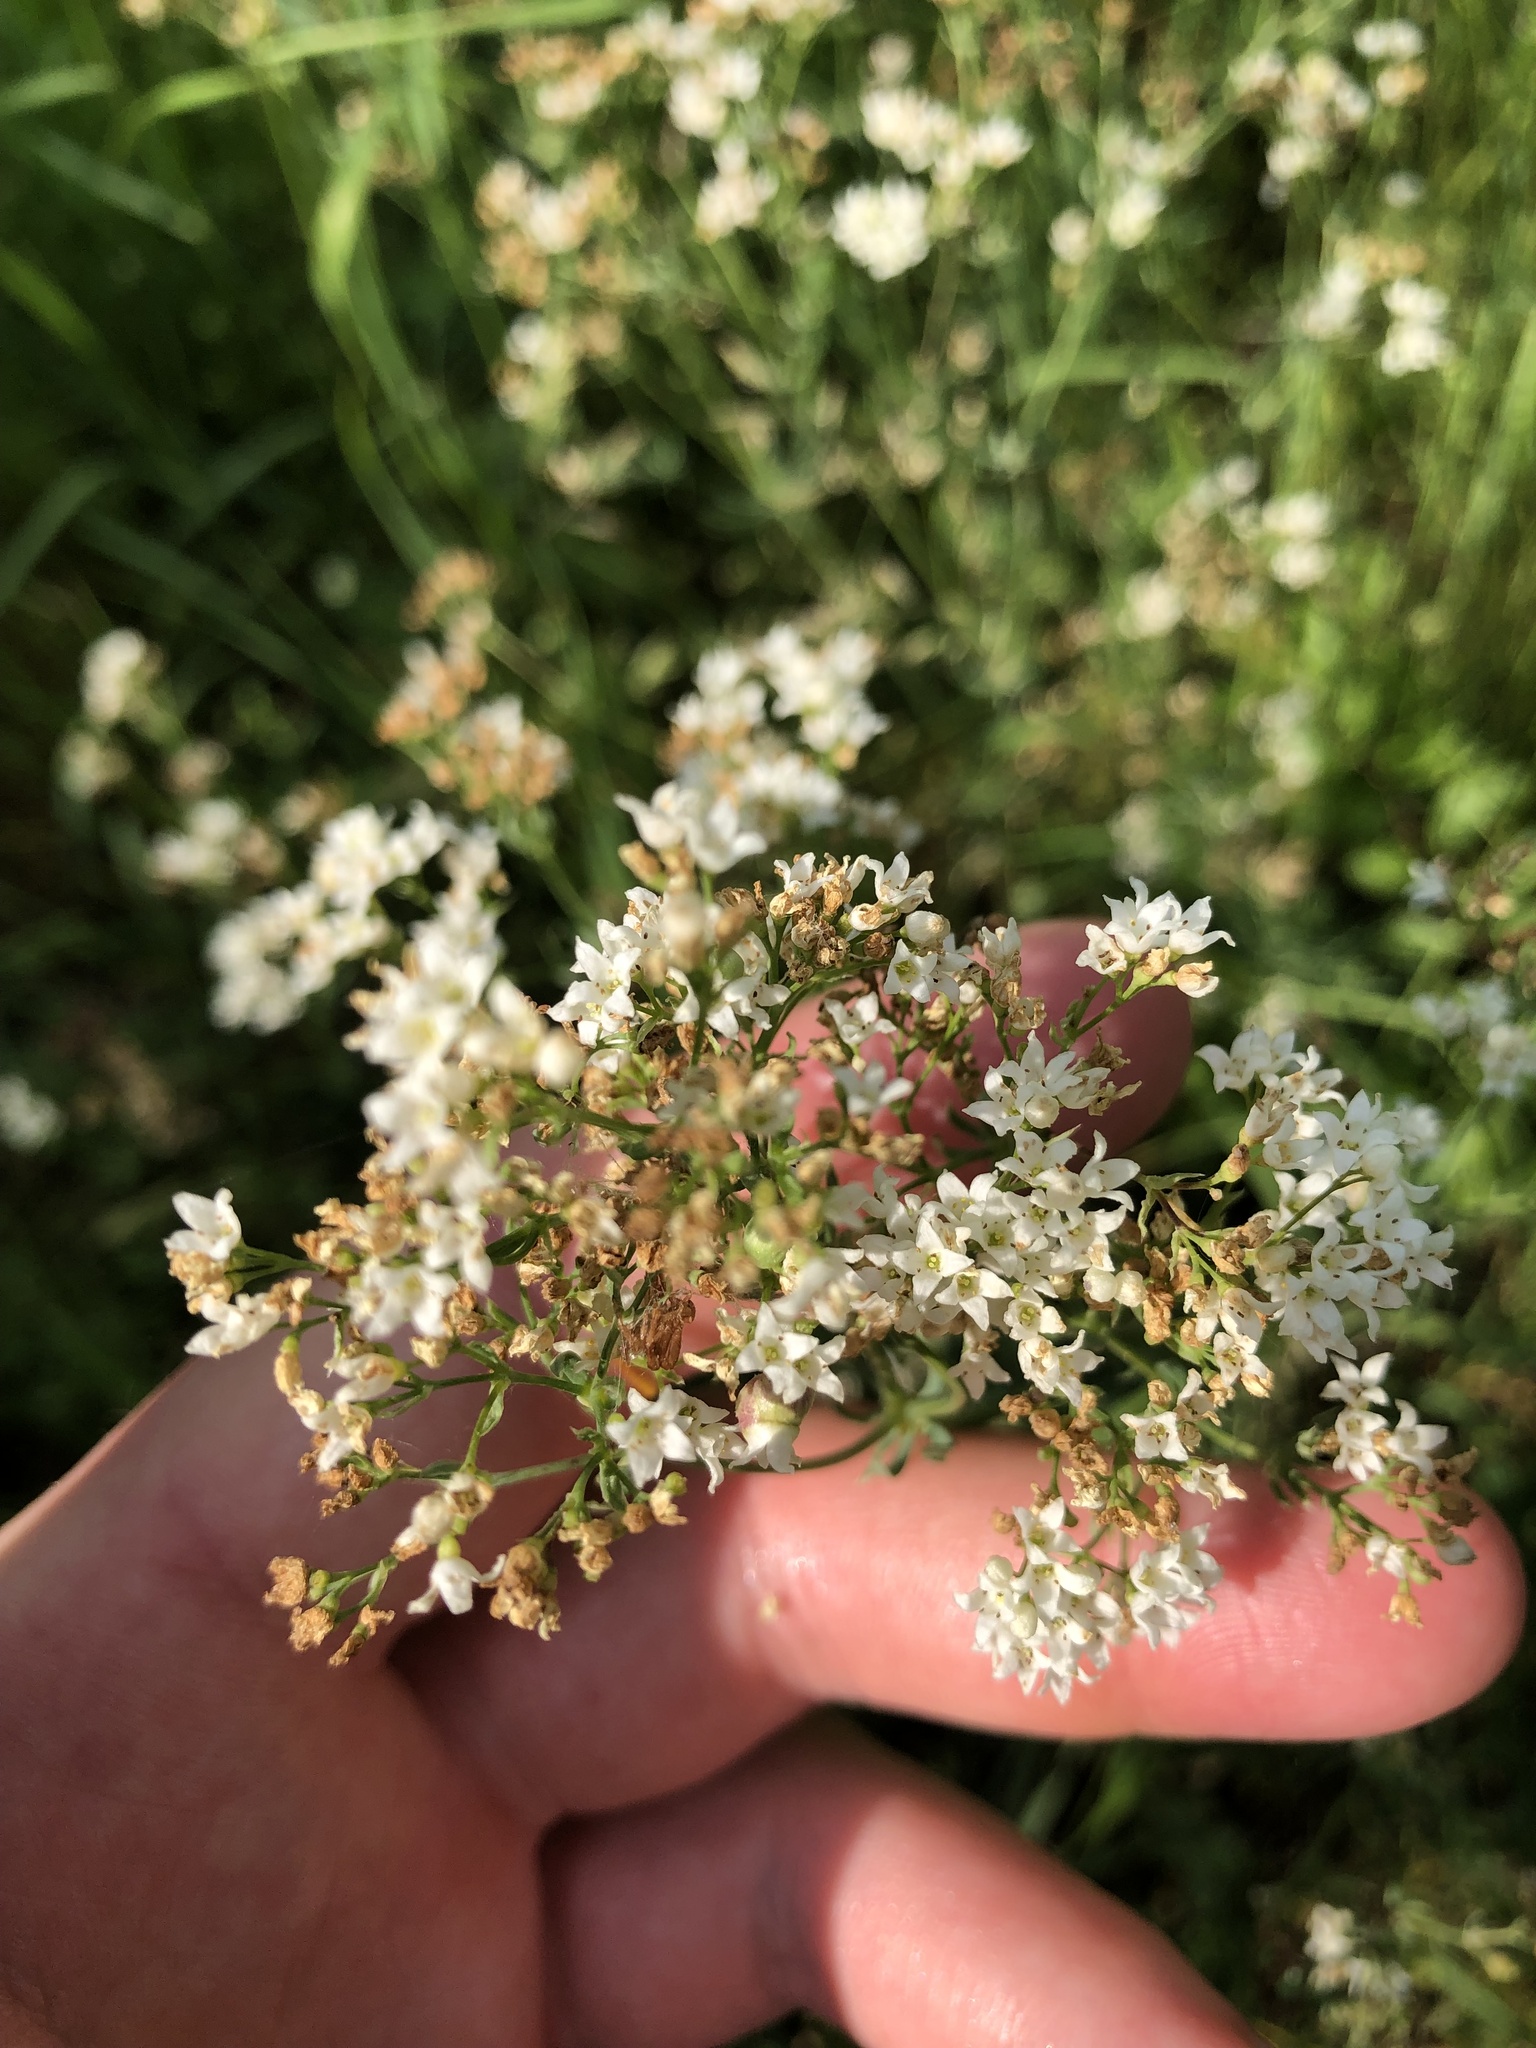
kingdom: Plantae
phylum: Tracheophyta
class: Magnoliopsida
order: Gentianales
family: Rubiaceae
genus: Galium
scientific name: Galium glaucum
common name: Waxy bedstraw
